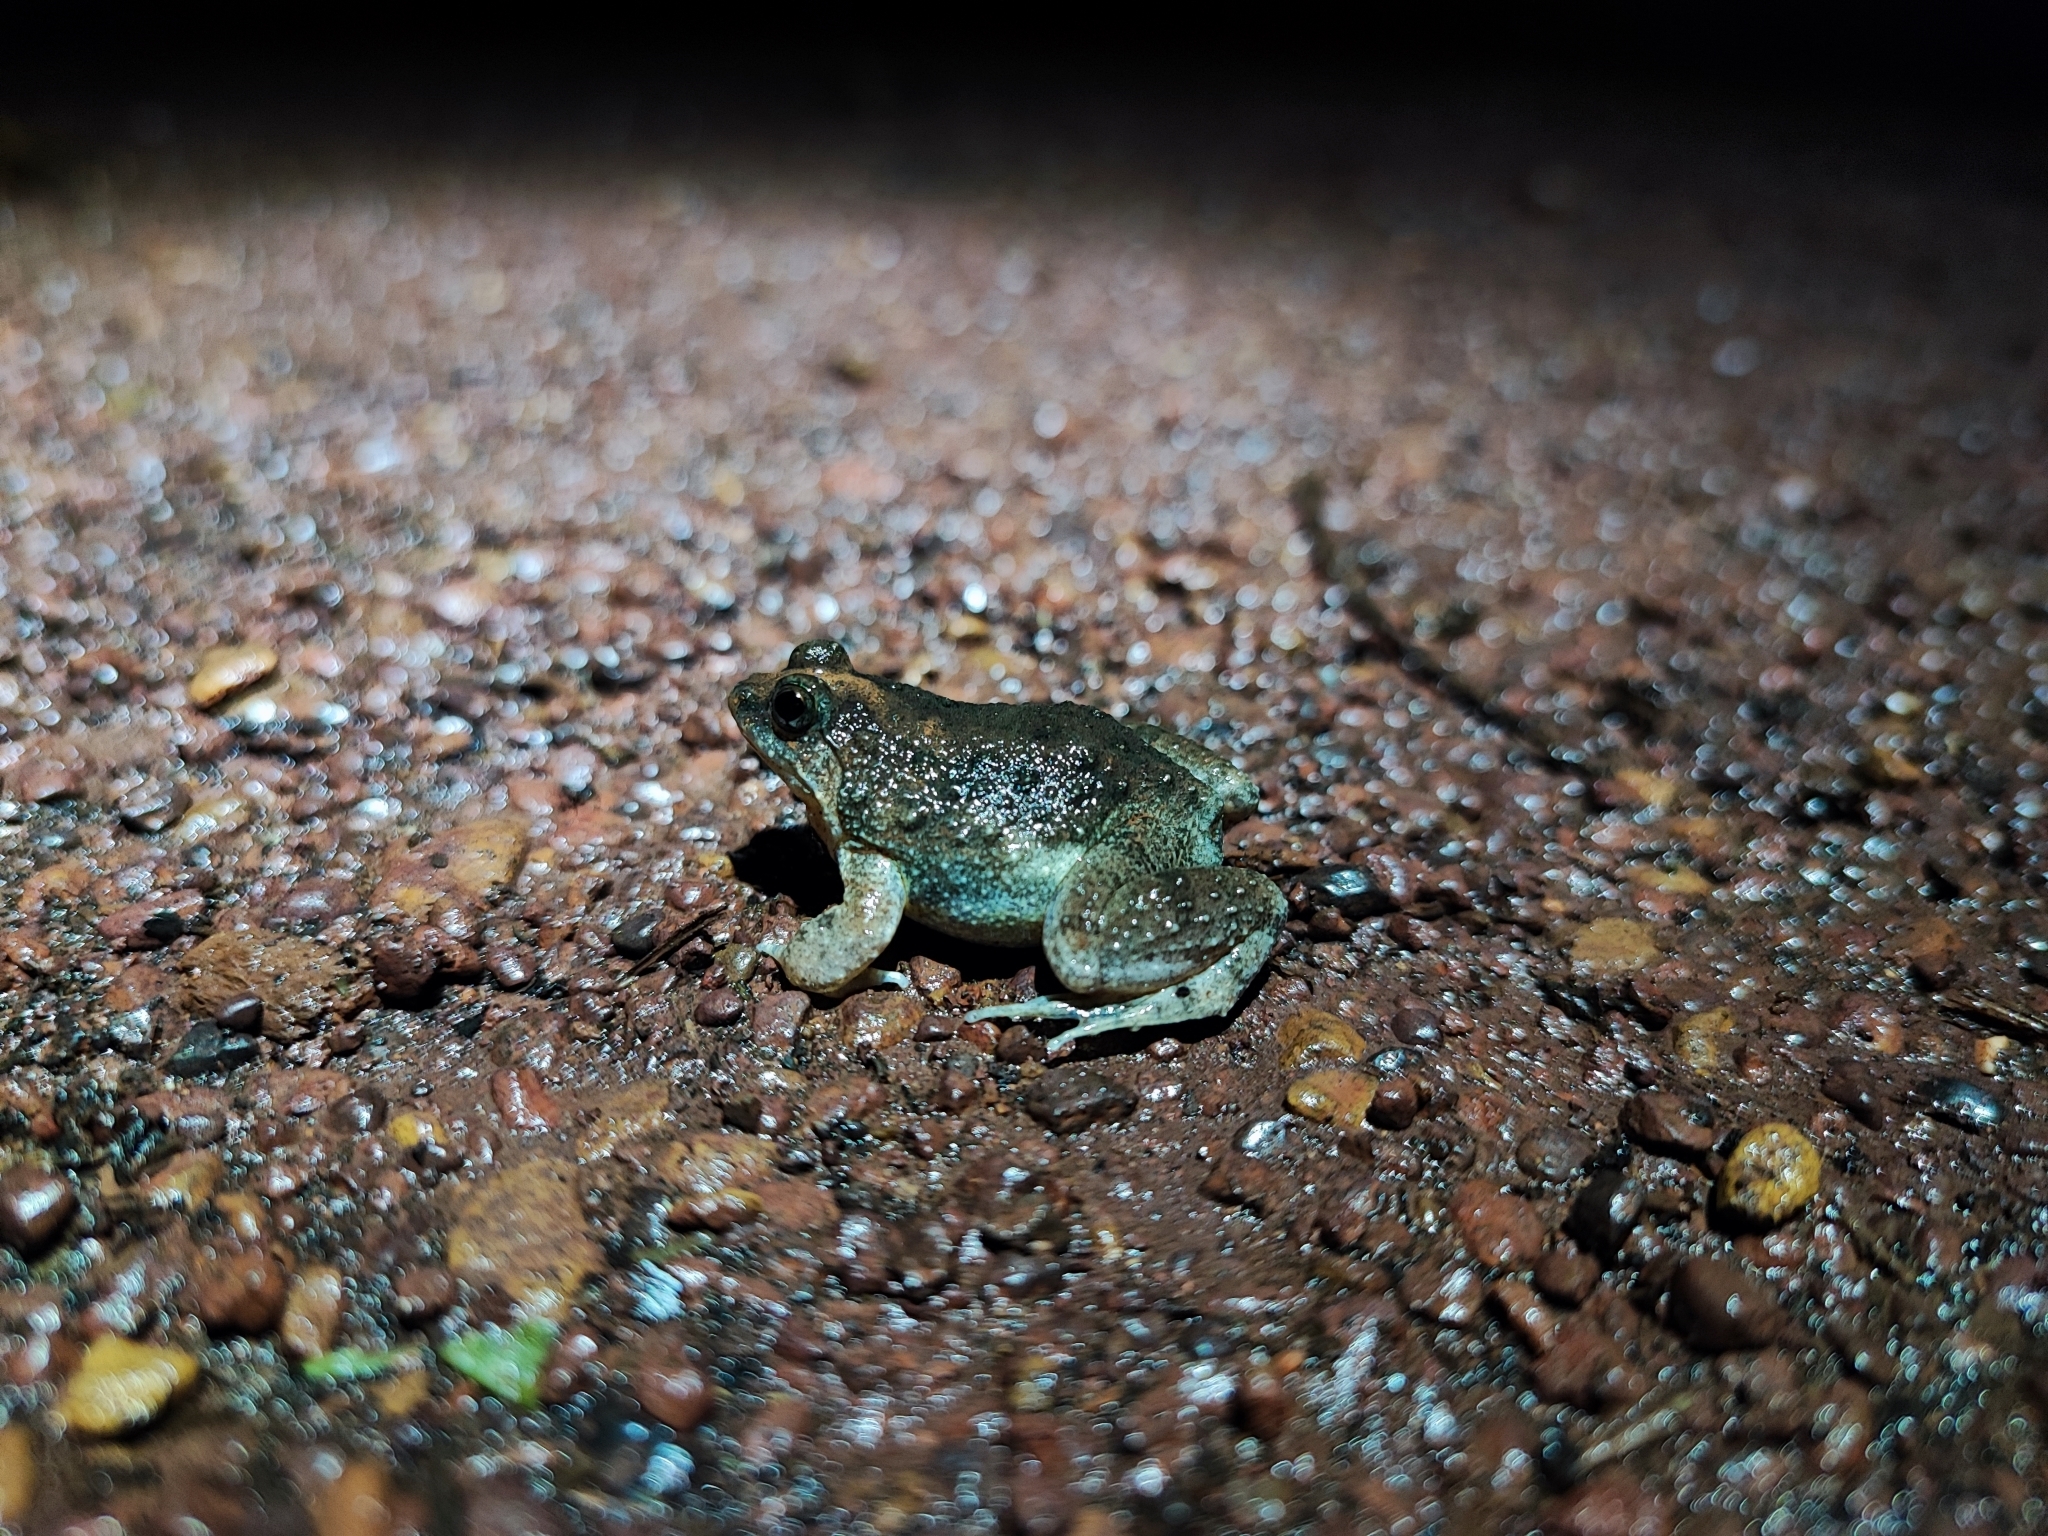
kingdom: Animalia
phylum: Chordata
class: Amphibia
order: Anura
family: Dicroglossidae
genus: Occidozyga
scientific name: Occidozyga martensii
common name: Marten’s oriental frog/round-tongued floating frog
